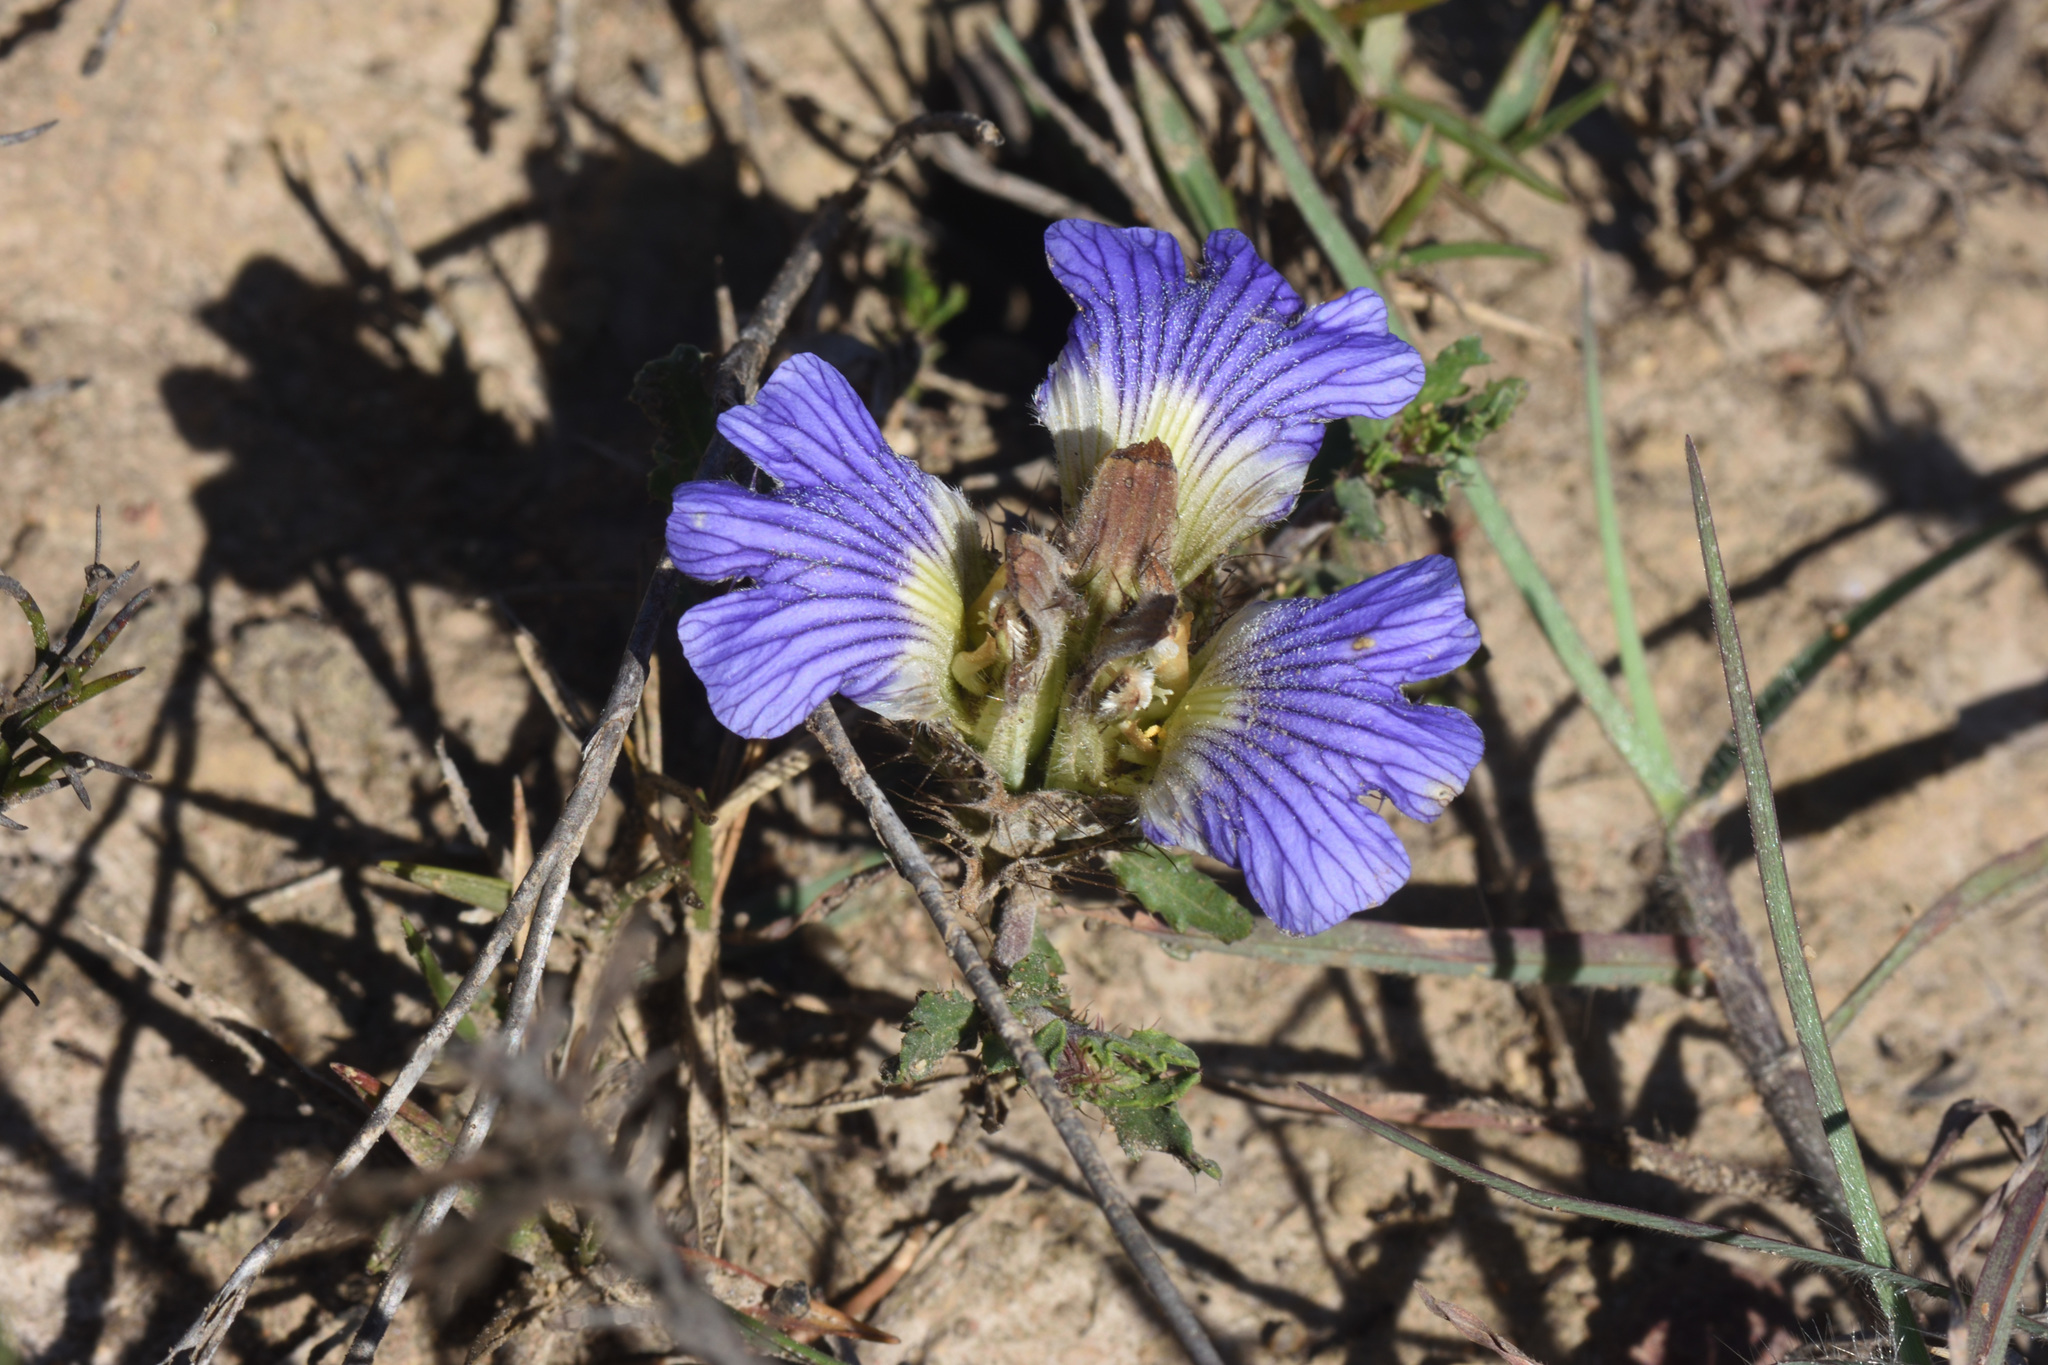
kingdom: Plantae
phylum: Tracheophyta
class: Magnoliopsida
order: Lamiales
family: Acanthaceae
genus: Blepharis
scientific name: Blepharis procumbens
